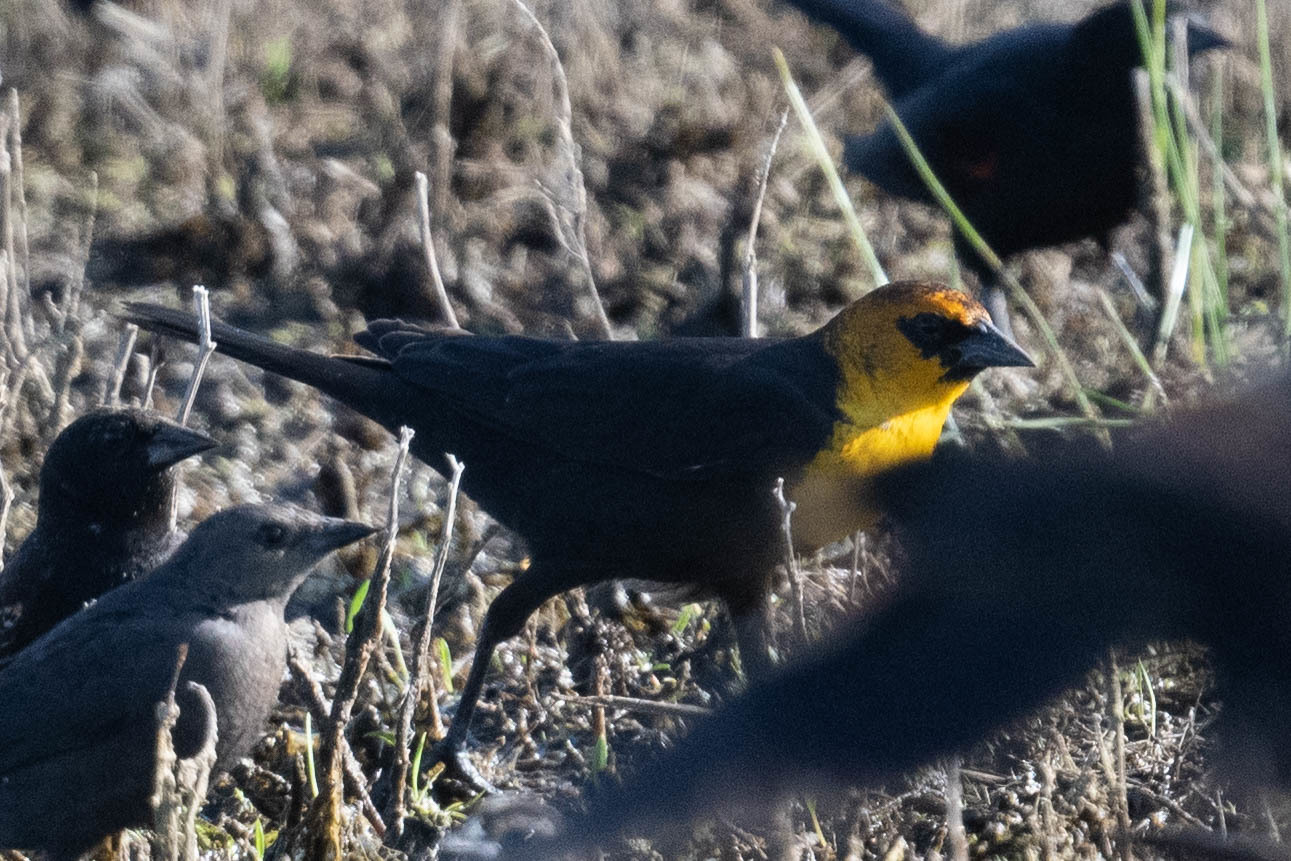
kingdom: Animalia
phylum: Chordata
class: Aves
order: Passeriformes
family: Icteridae
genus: Xanthocephalus
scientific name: Xanthocephalus xanthocephalus
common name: Yellow-headed blackbird
